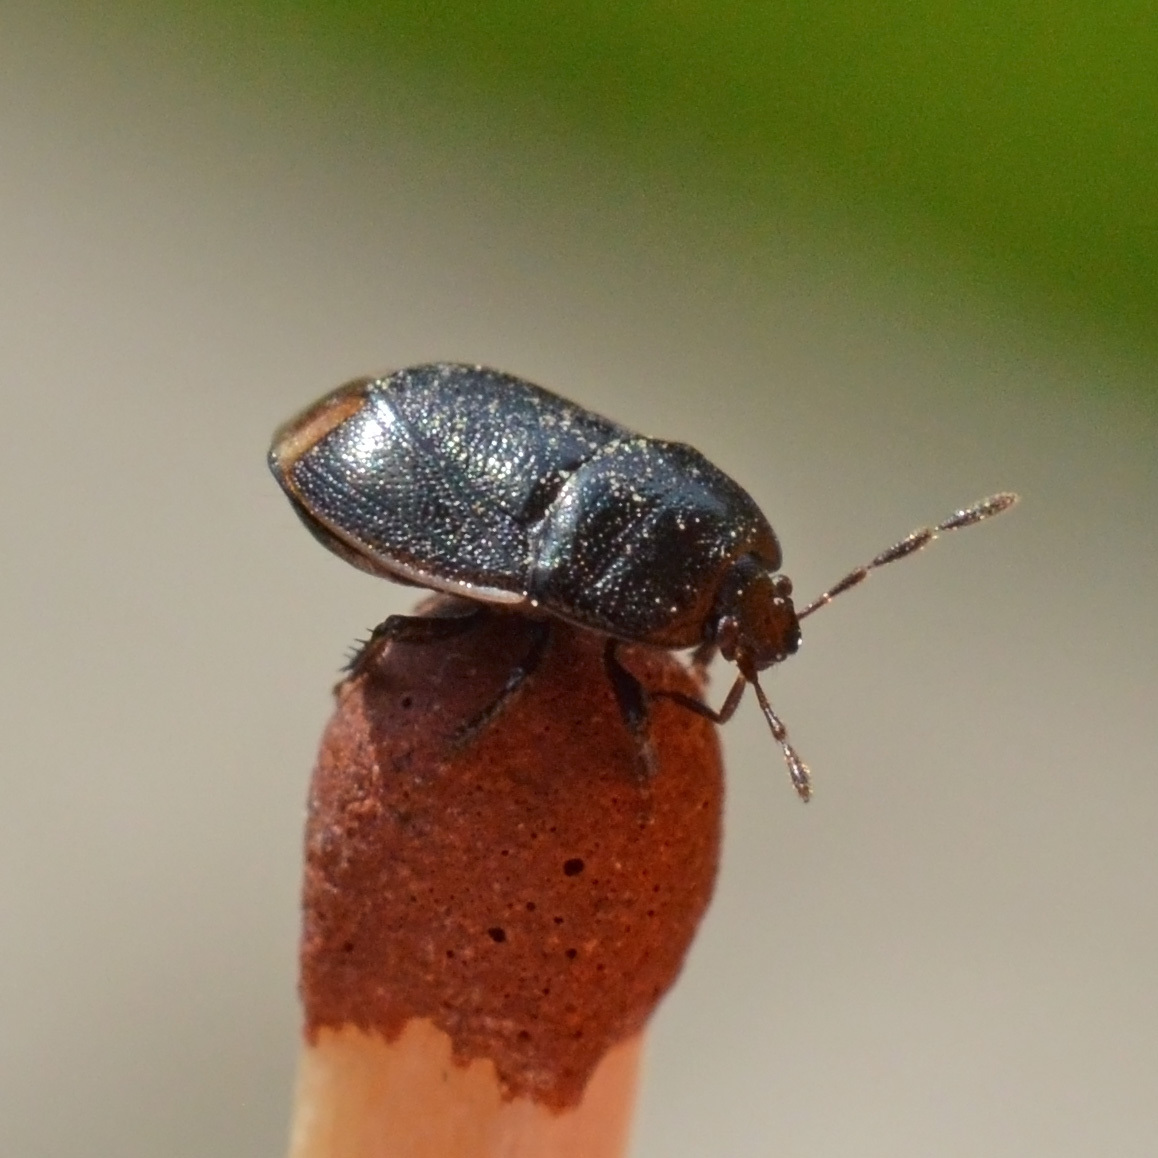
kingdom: Animalia
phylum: Arthropoda
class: Insecta
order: Hemiptera
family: Cydnidae
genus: Legnotus
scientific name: Legnotus limbosus
